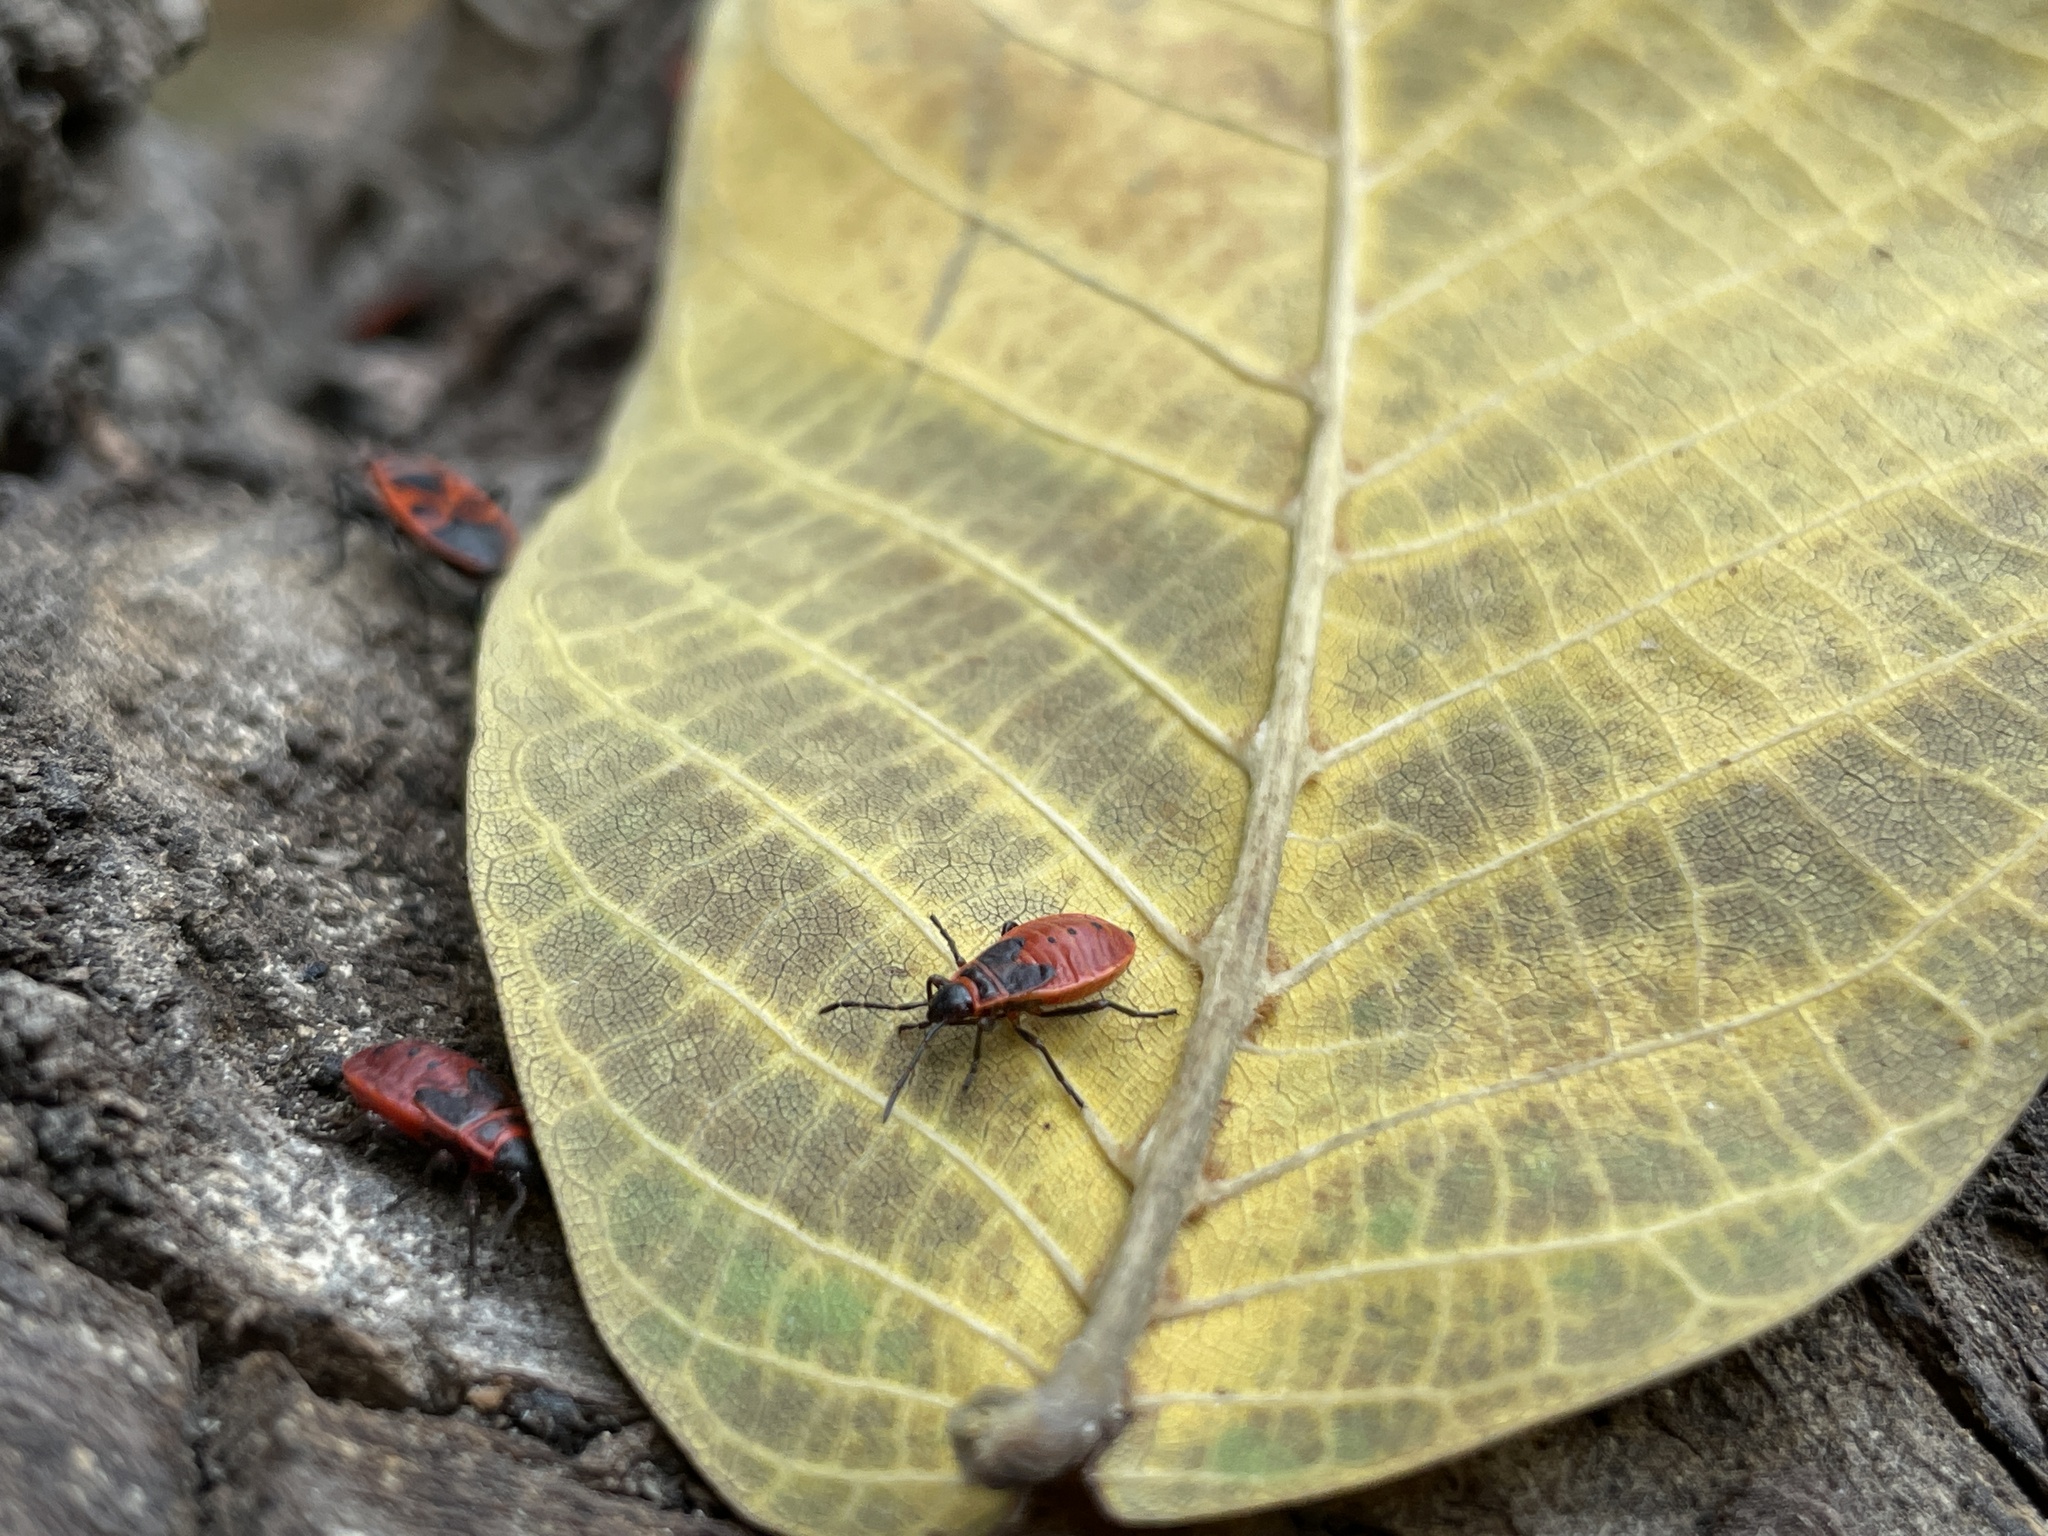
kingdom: Animalia
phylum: Arthropoda
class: Insecta
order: Hemiptera
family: Pyrrhocoridae
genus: Pyrrhocoris
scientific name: Pyrrhocoris apterus
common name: Firebug
